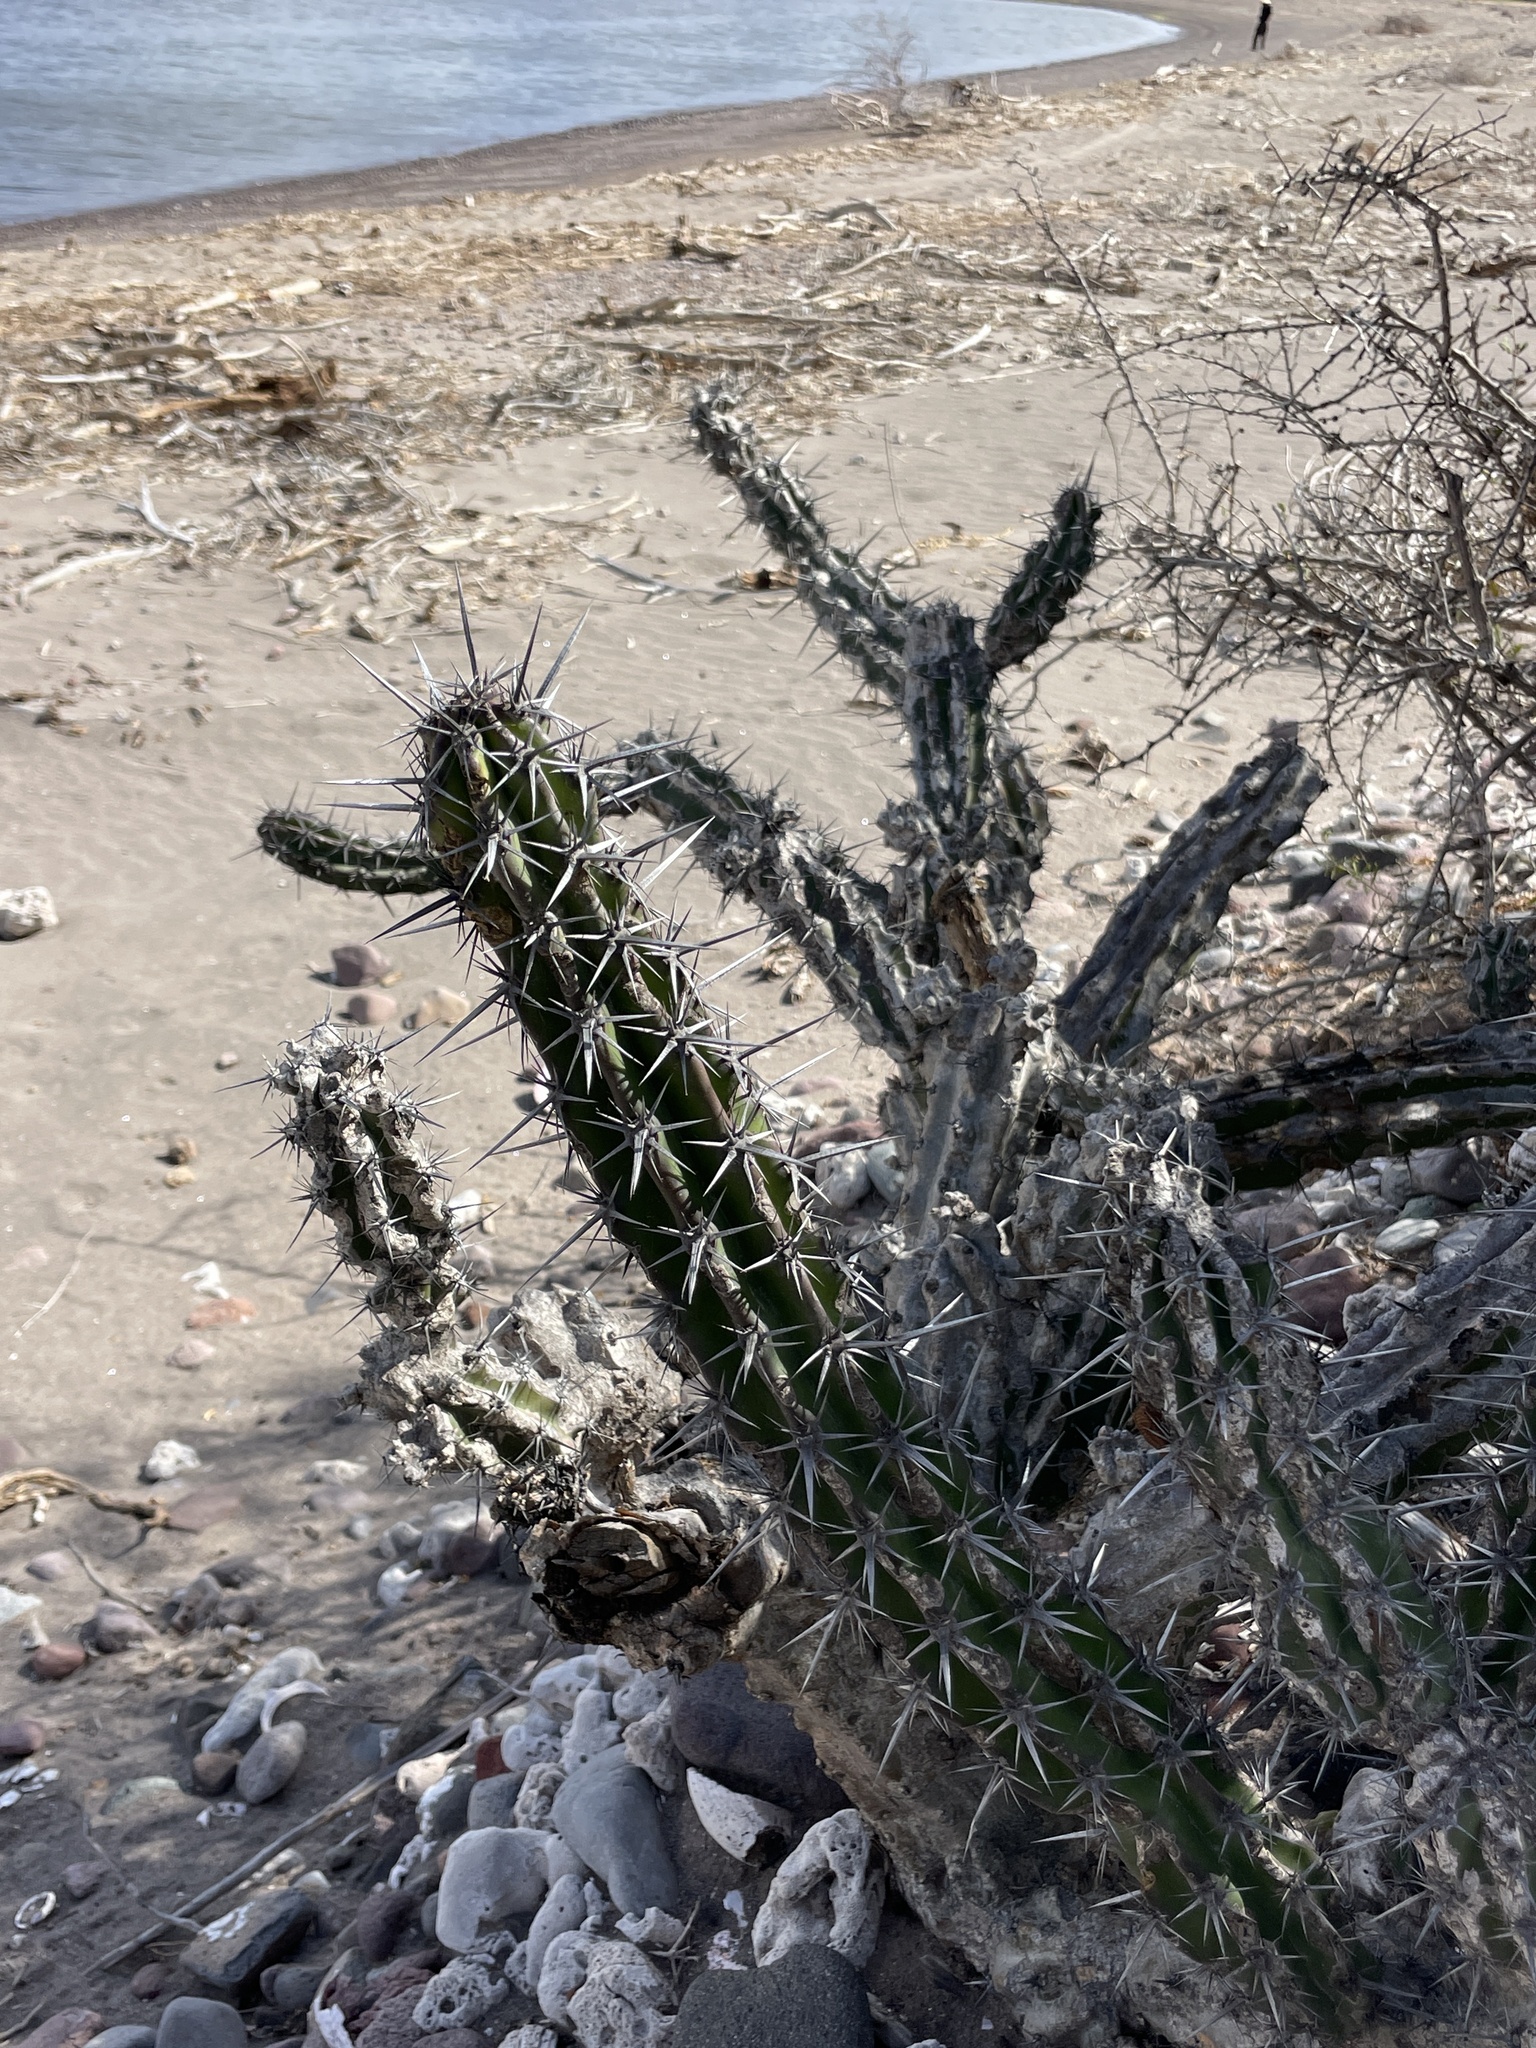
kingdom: Plantae
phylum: Tracheophyta
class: Magnoliopsida
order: Caryophyllales
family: Cactaceae
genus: Stenocereus
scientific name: Stenocereus gummosus
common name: Dagger cactus
